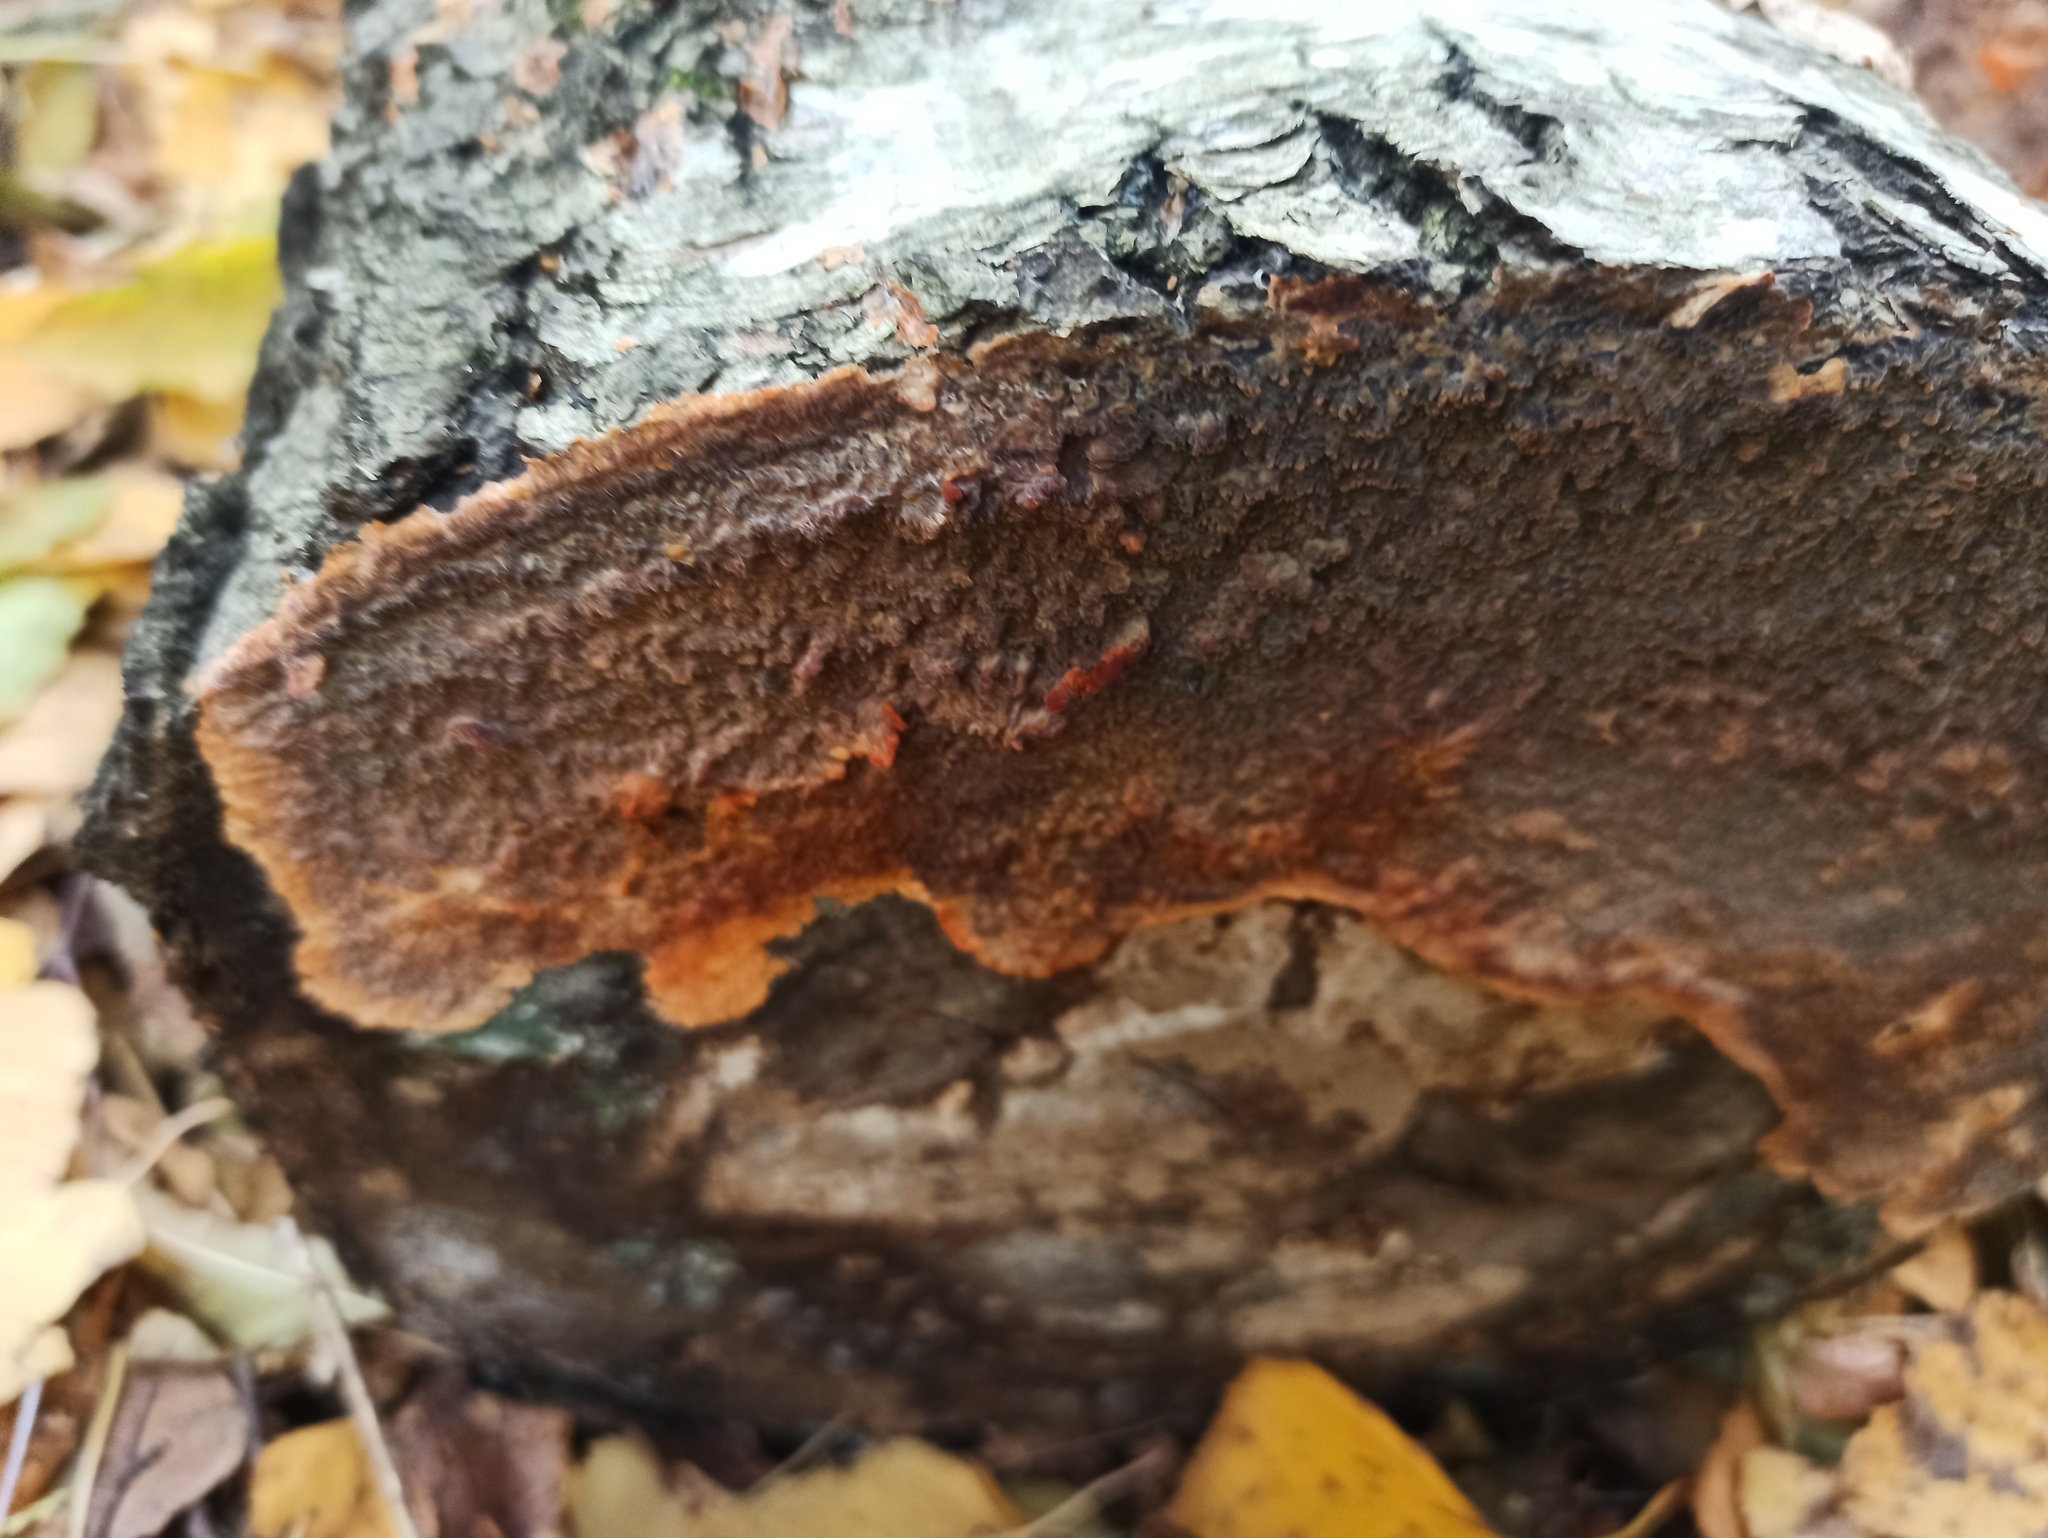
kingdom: Fungi
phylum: Basidiomycota
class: Agaricomycetes
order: Polyporales
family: Meruliaceae
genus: Phlebia
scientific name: Phlebia radiata
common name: Wrinkled crust
